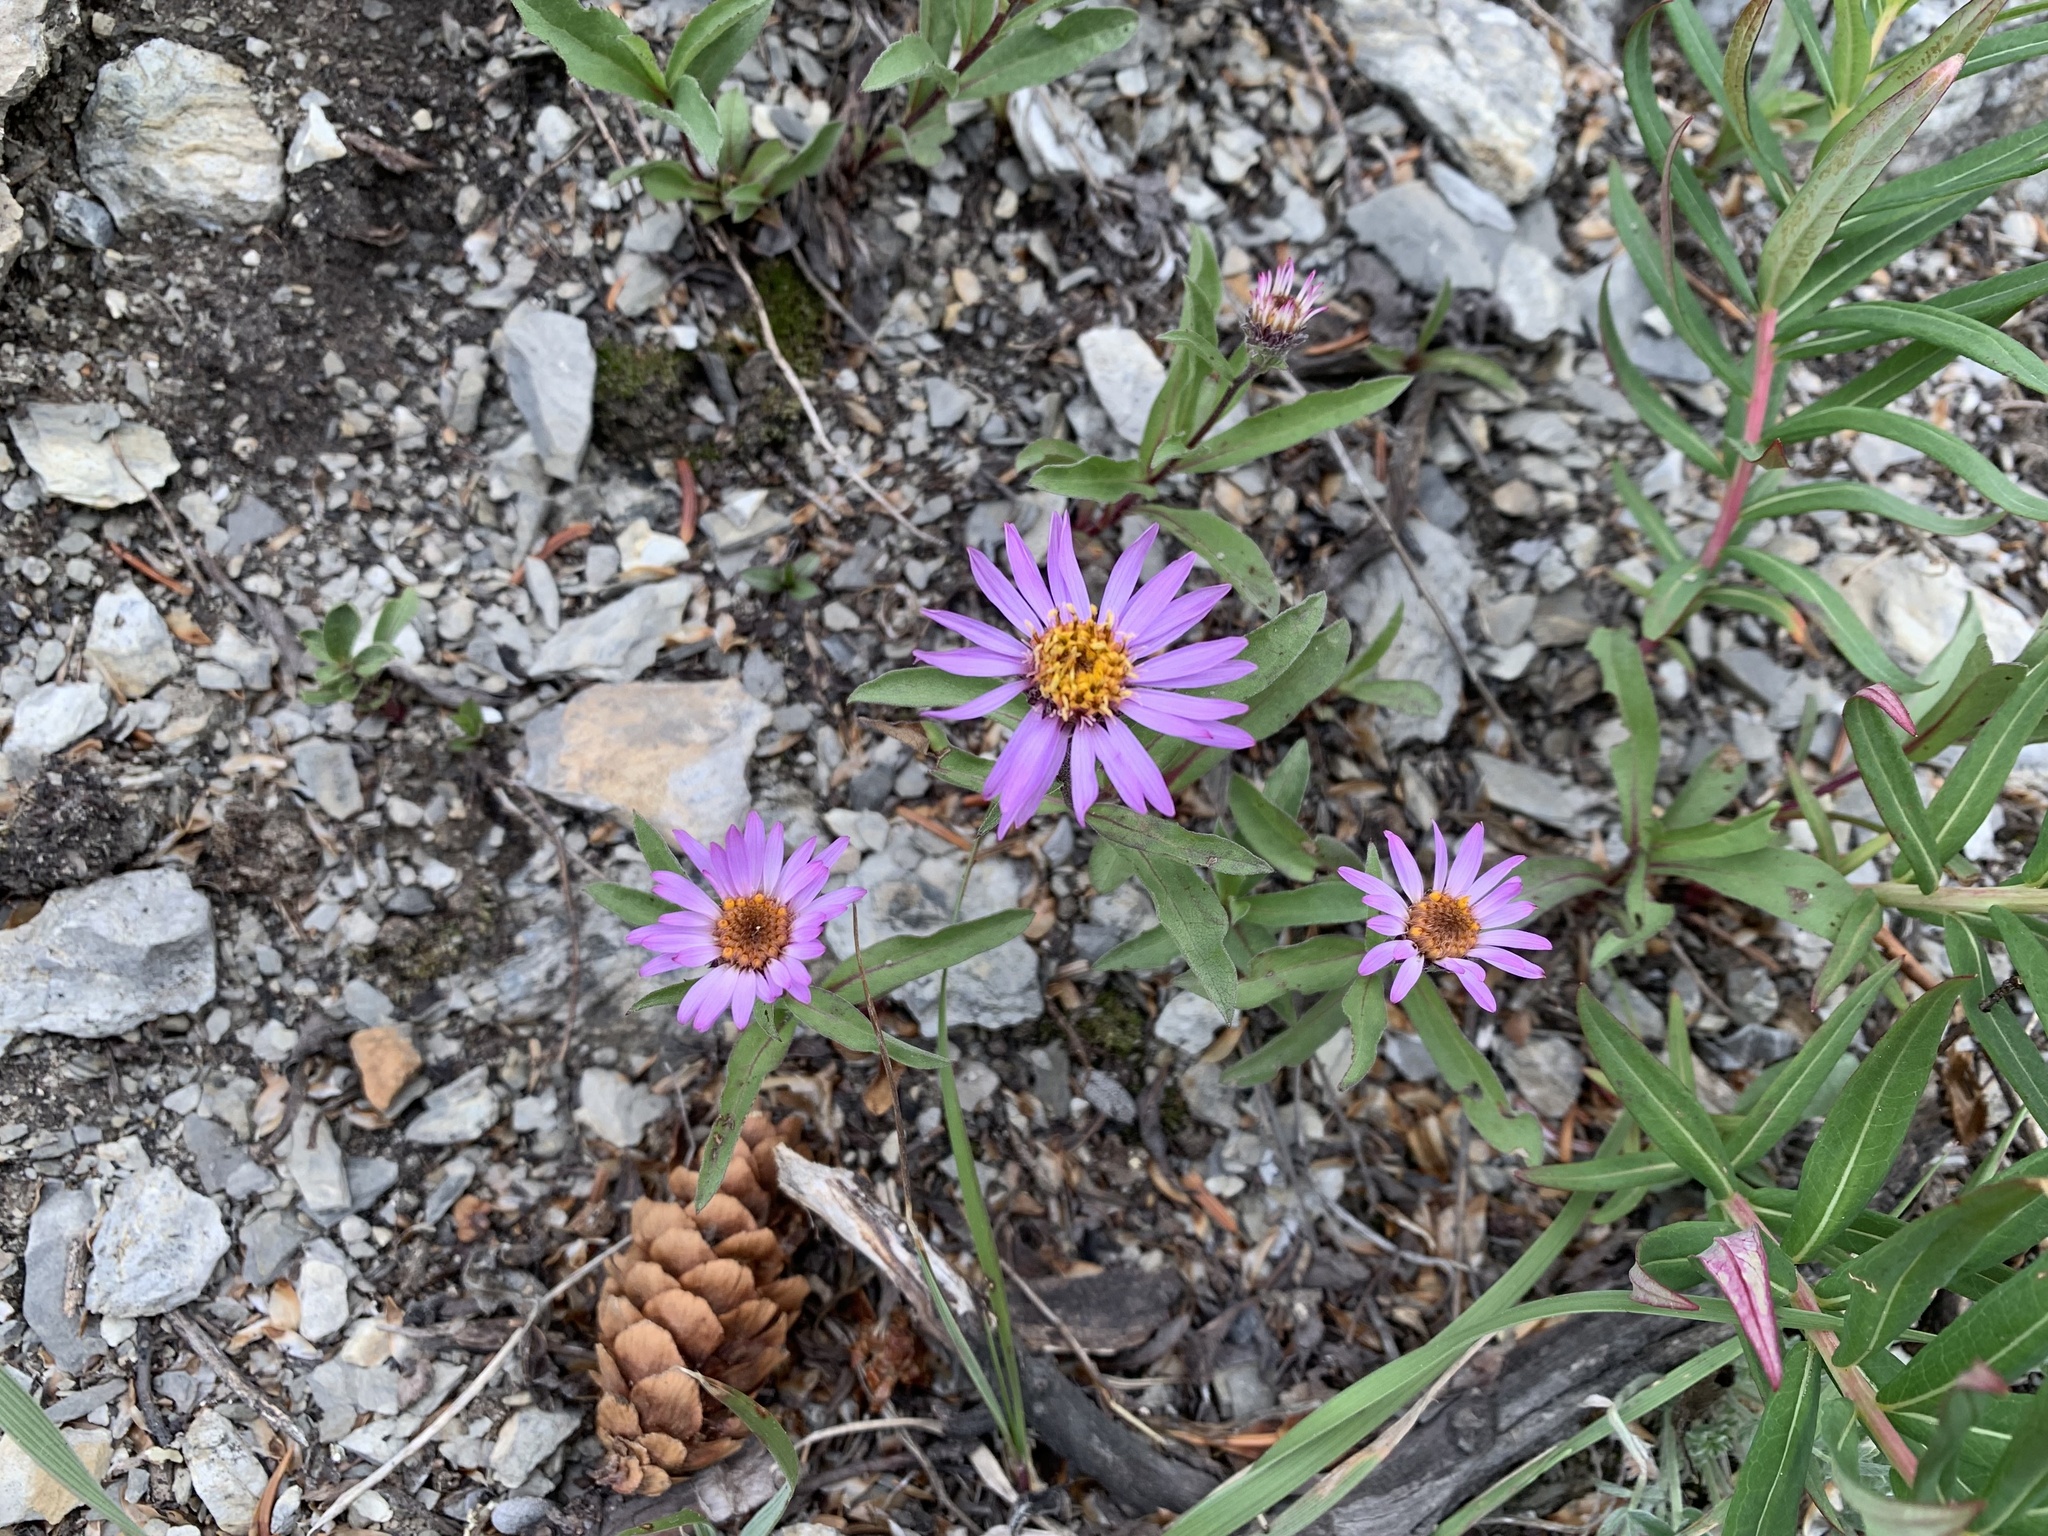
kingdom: Plantae
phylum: Tracheophyta
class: Magnoliopsida
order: Asterales
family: Asteraceae
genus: Eurybia
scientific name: Eurybia sibirica
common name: Arctic aster
